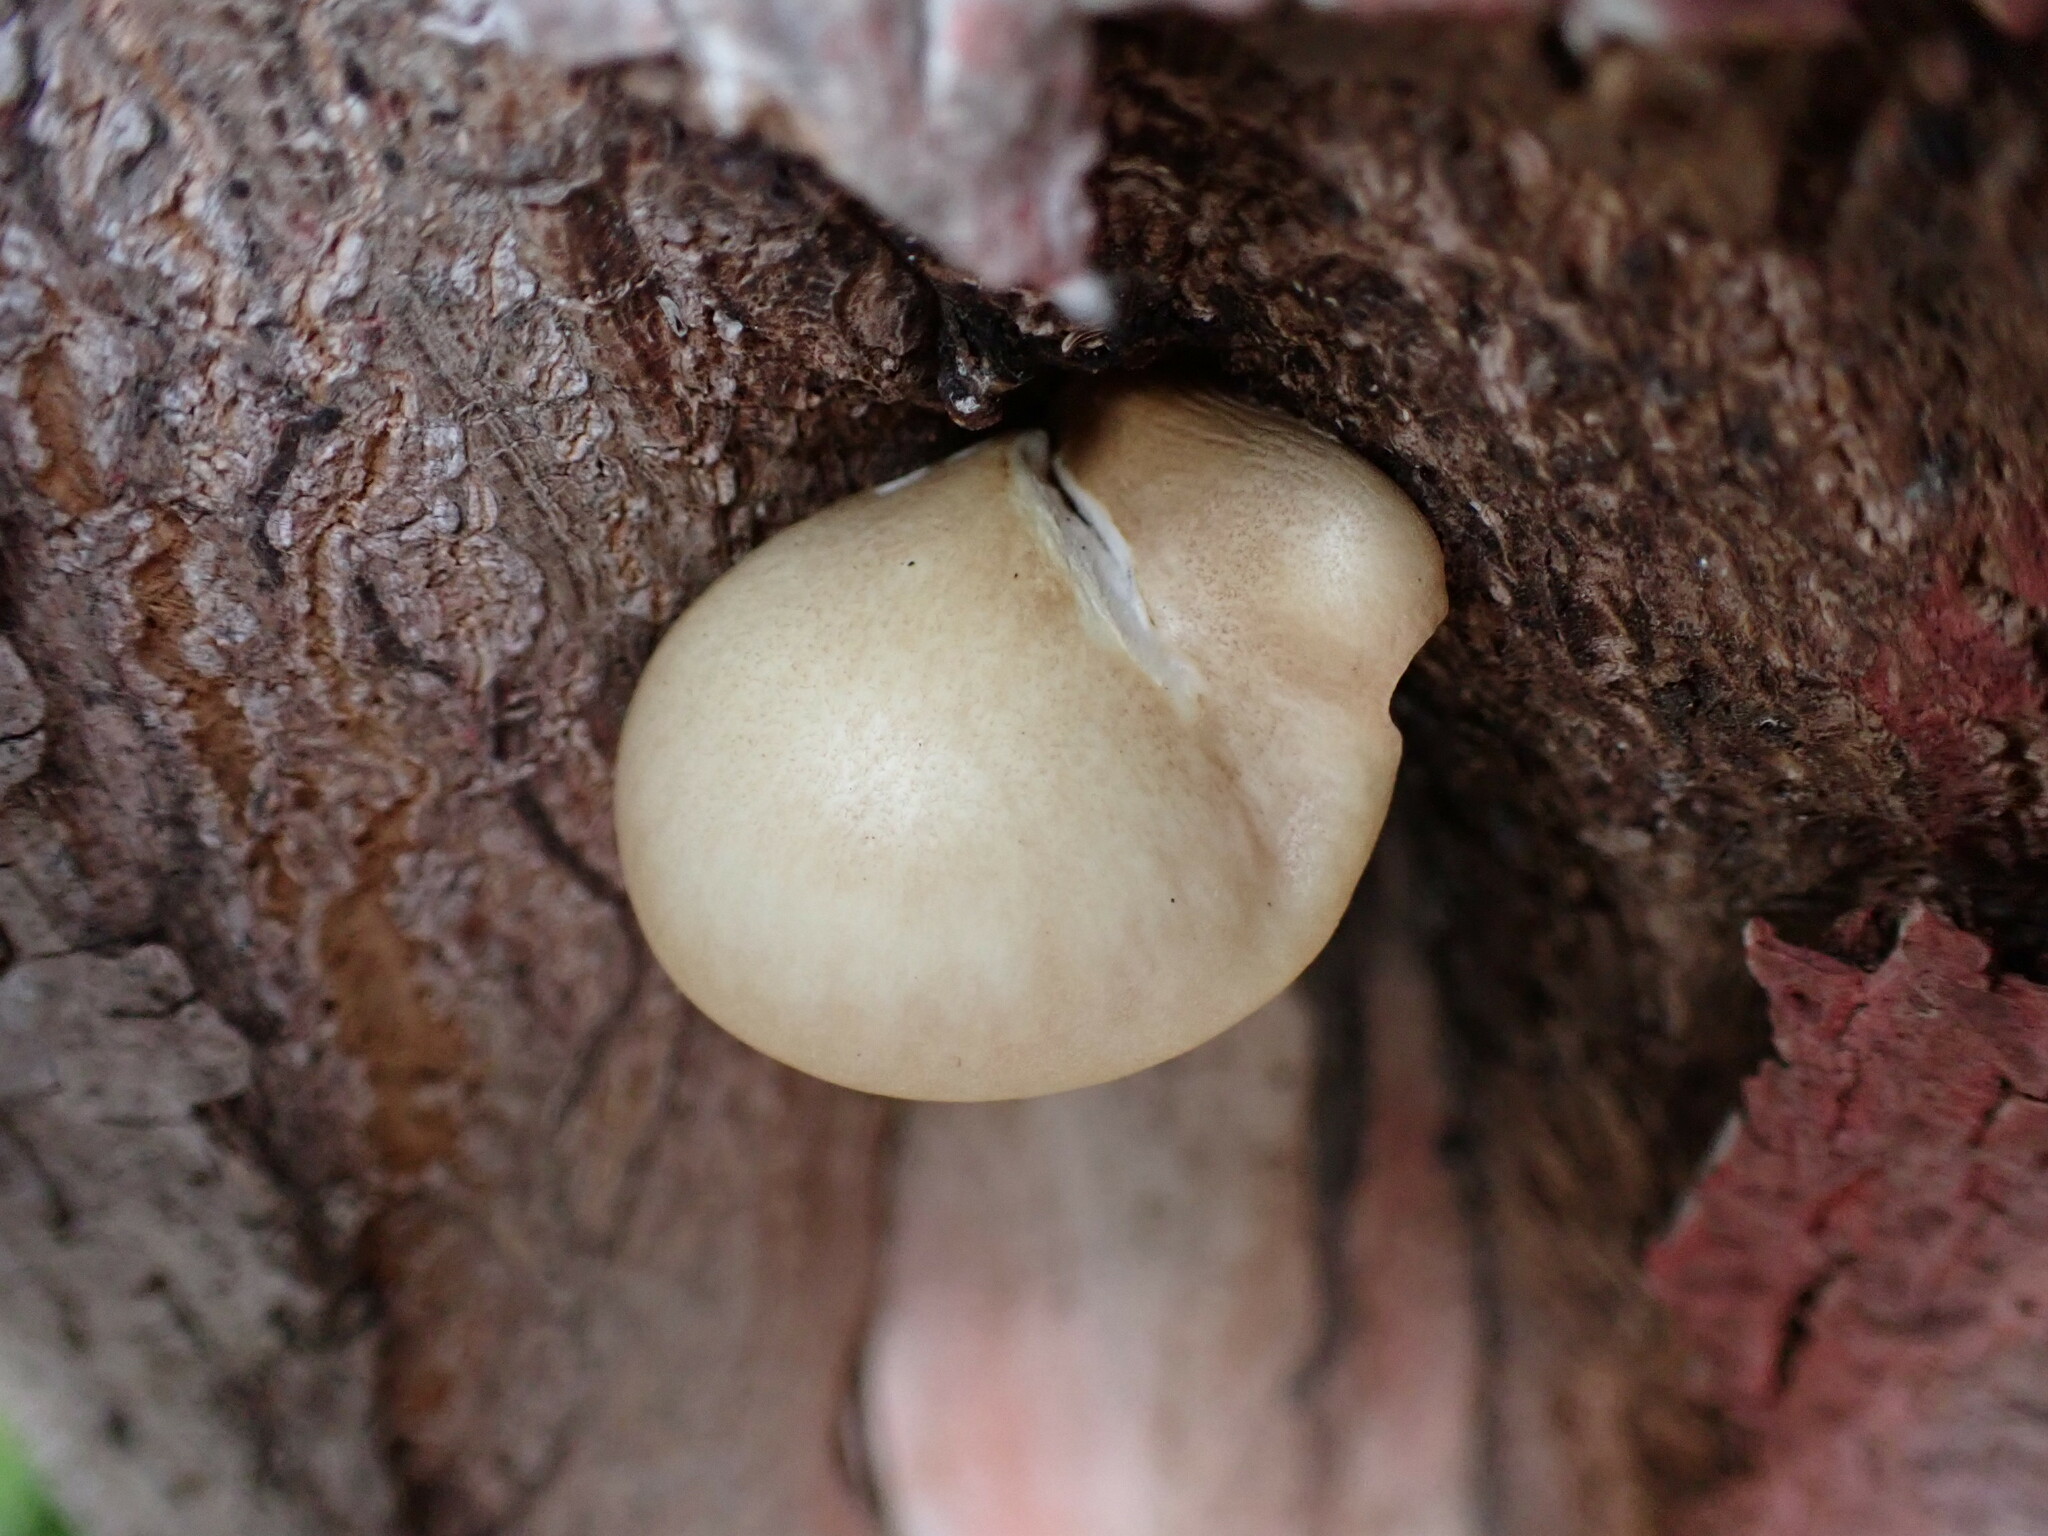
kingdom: Fungi
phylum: Basidiomycota
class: Agaricomycetes
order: Agaricales
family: Pleurotaceae
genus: Pleurotus
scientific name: Pleurotus ostreatus
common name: Oyster mushroom
